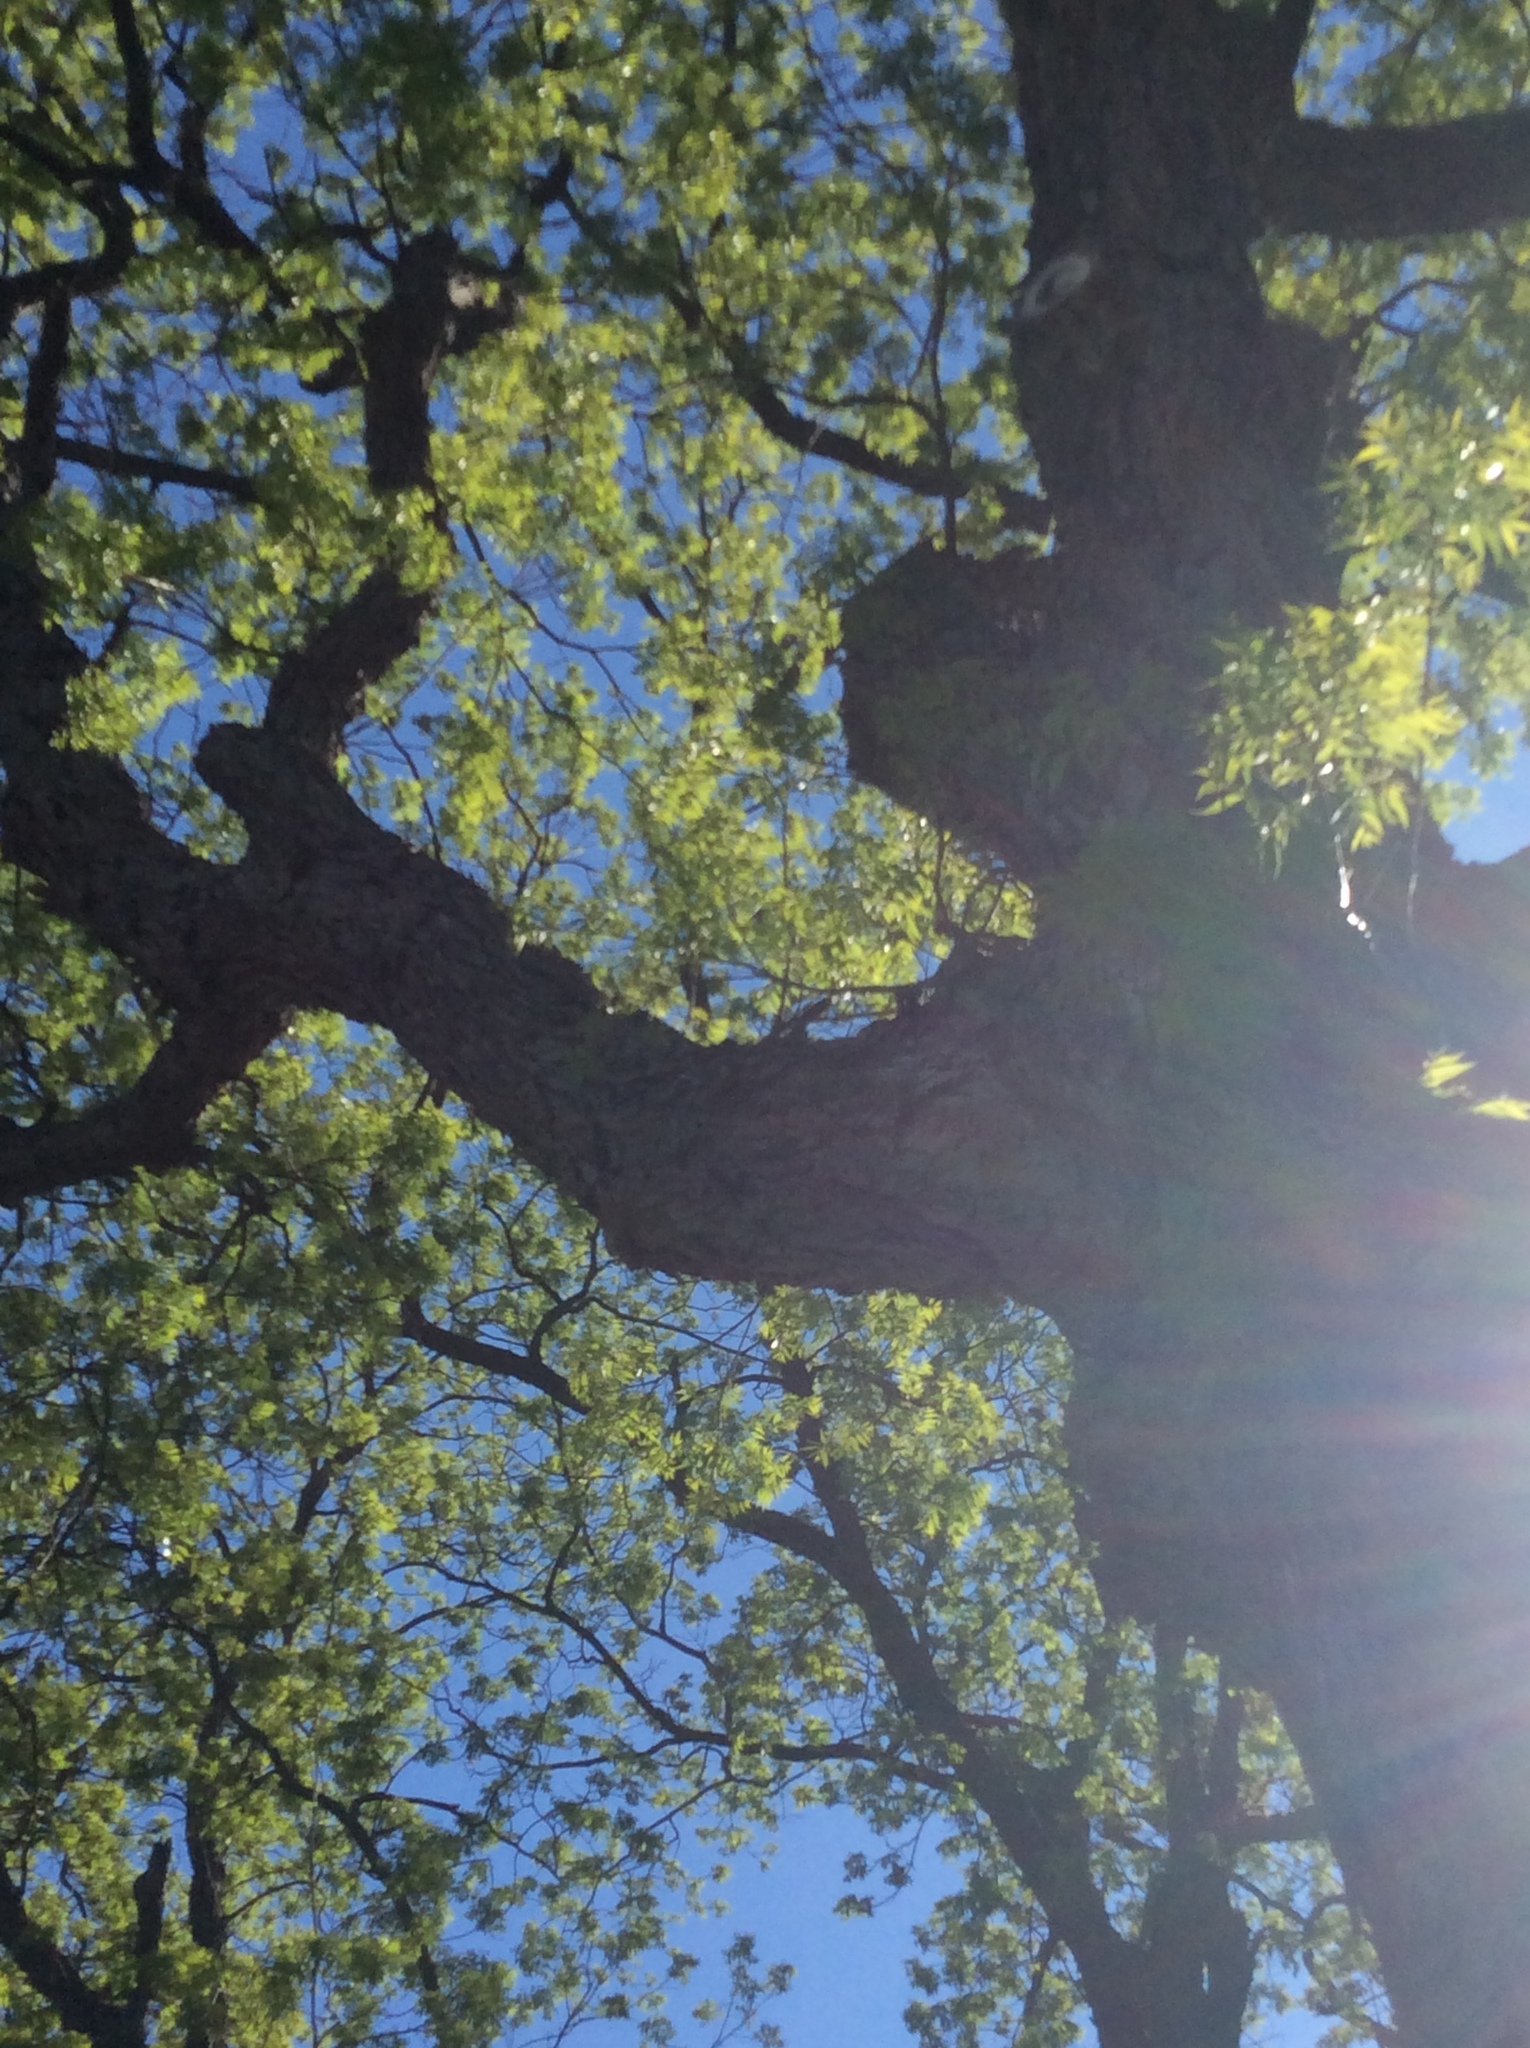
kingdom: Plantae
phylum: Tracheophyta
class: Magnoliopsida
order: Fagales
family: Juglandaceae
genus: Carya
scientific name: Carya illinoinensis
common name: Pecan
